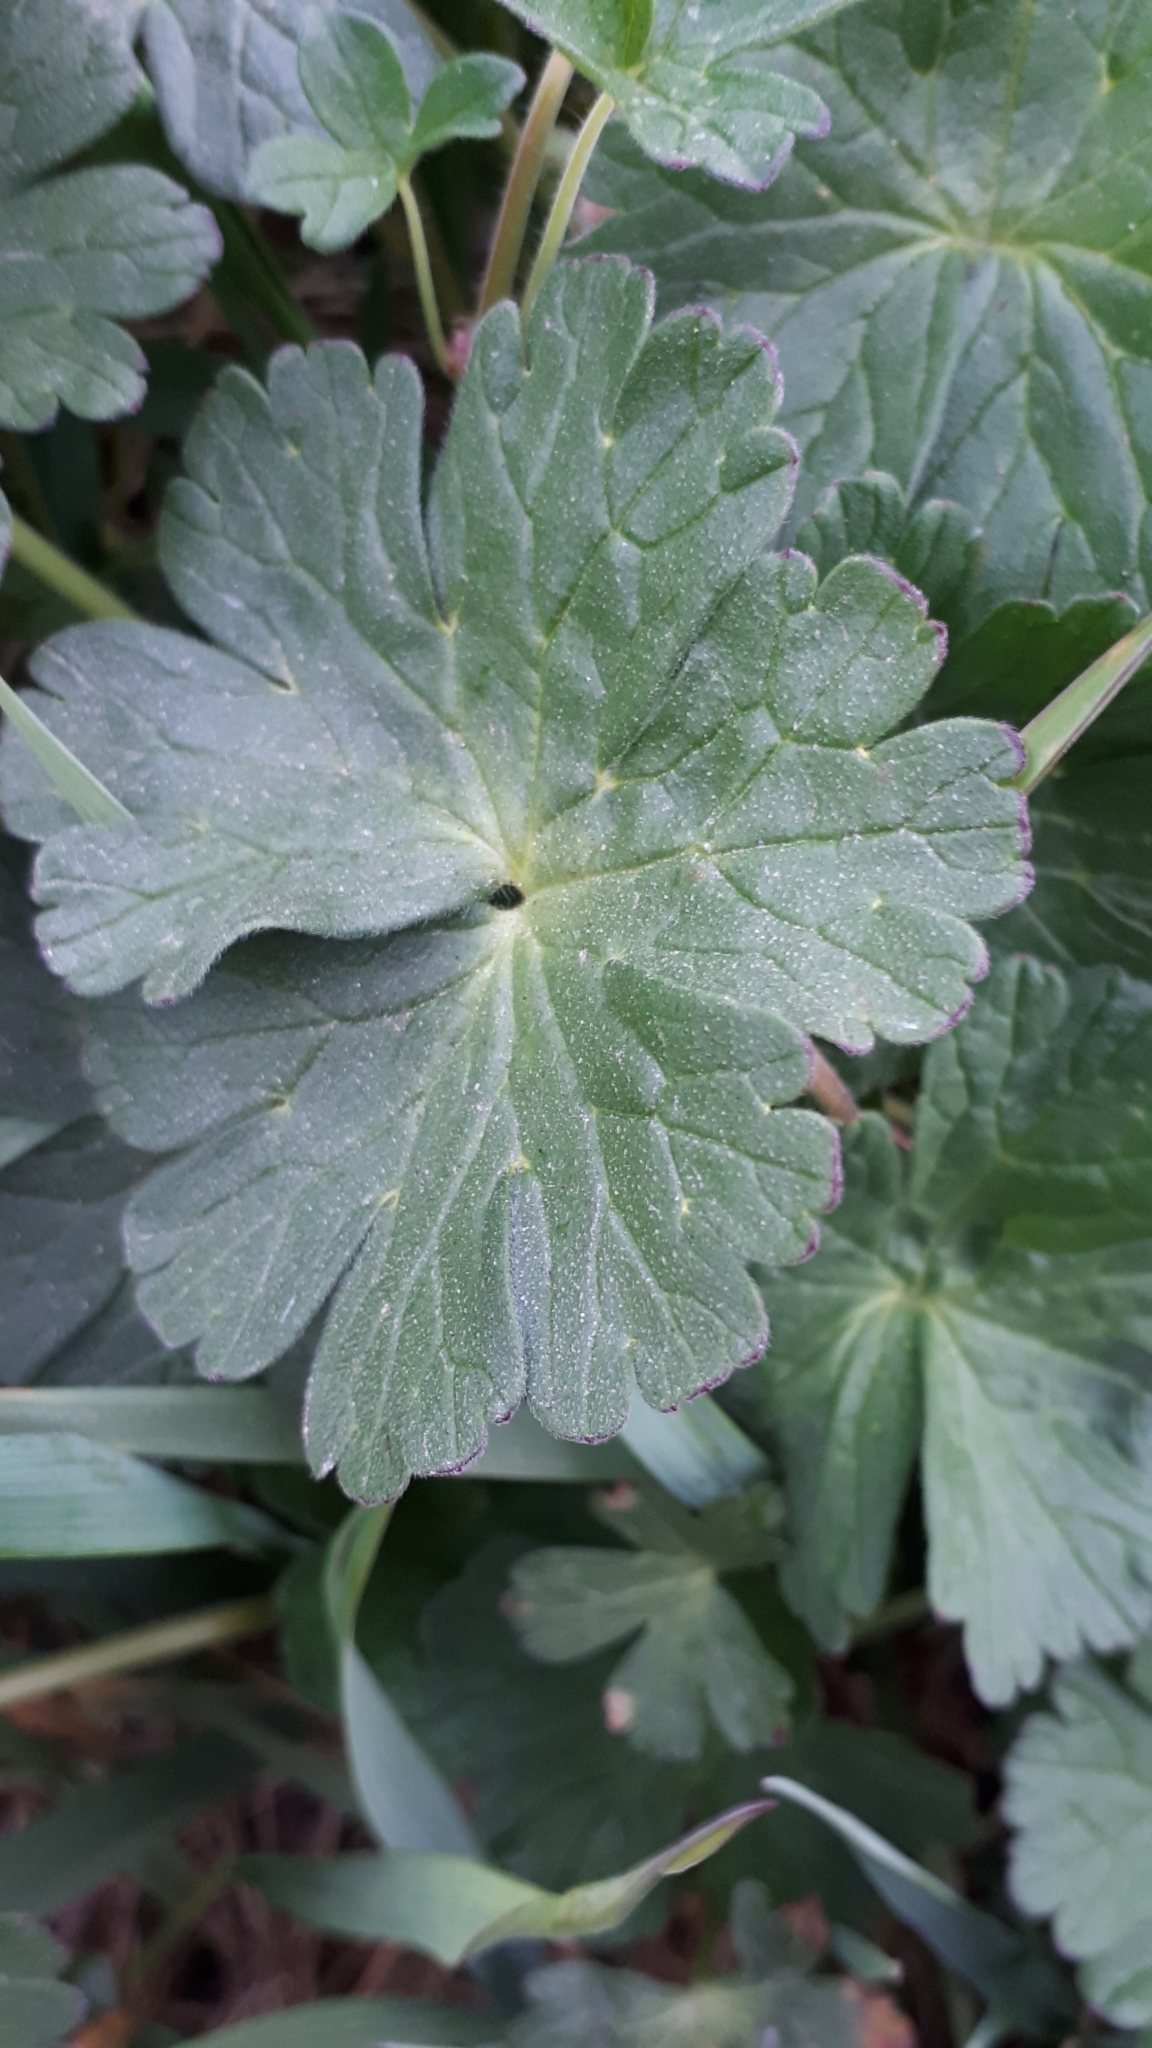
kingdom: Plantae
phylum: Tracheophyta
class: Magnoliopsida
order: Geraniales
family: Geraniaceae
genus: Geranium
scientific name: Geranium pyrenaicum
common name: Hedgerow crane's-bill
